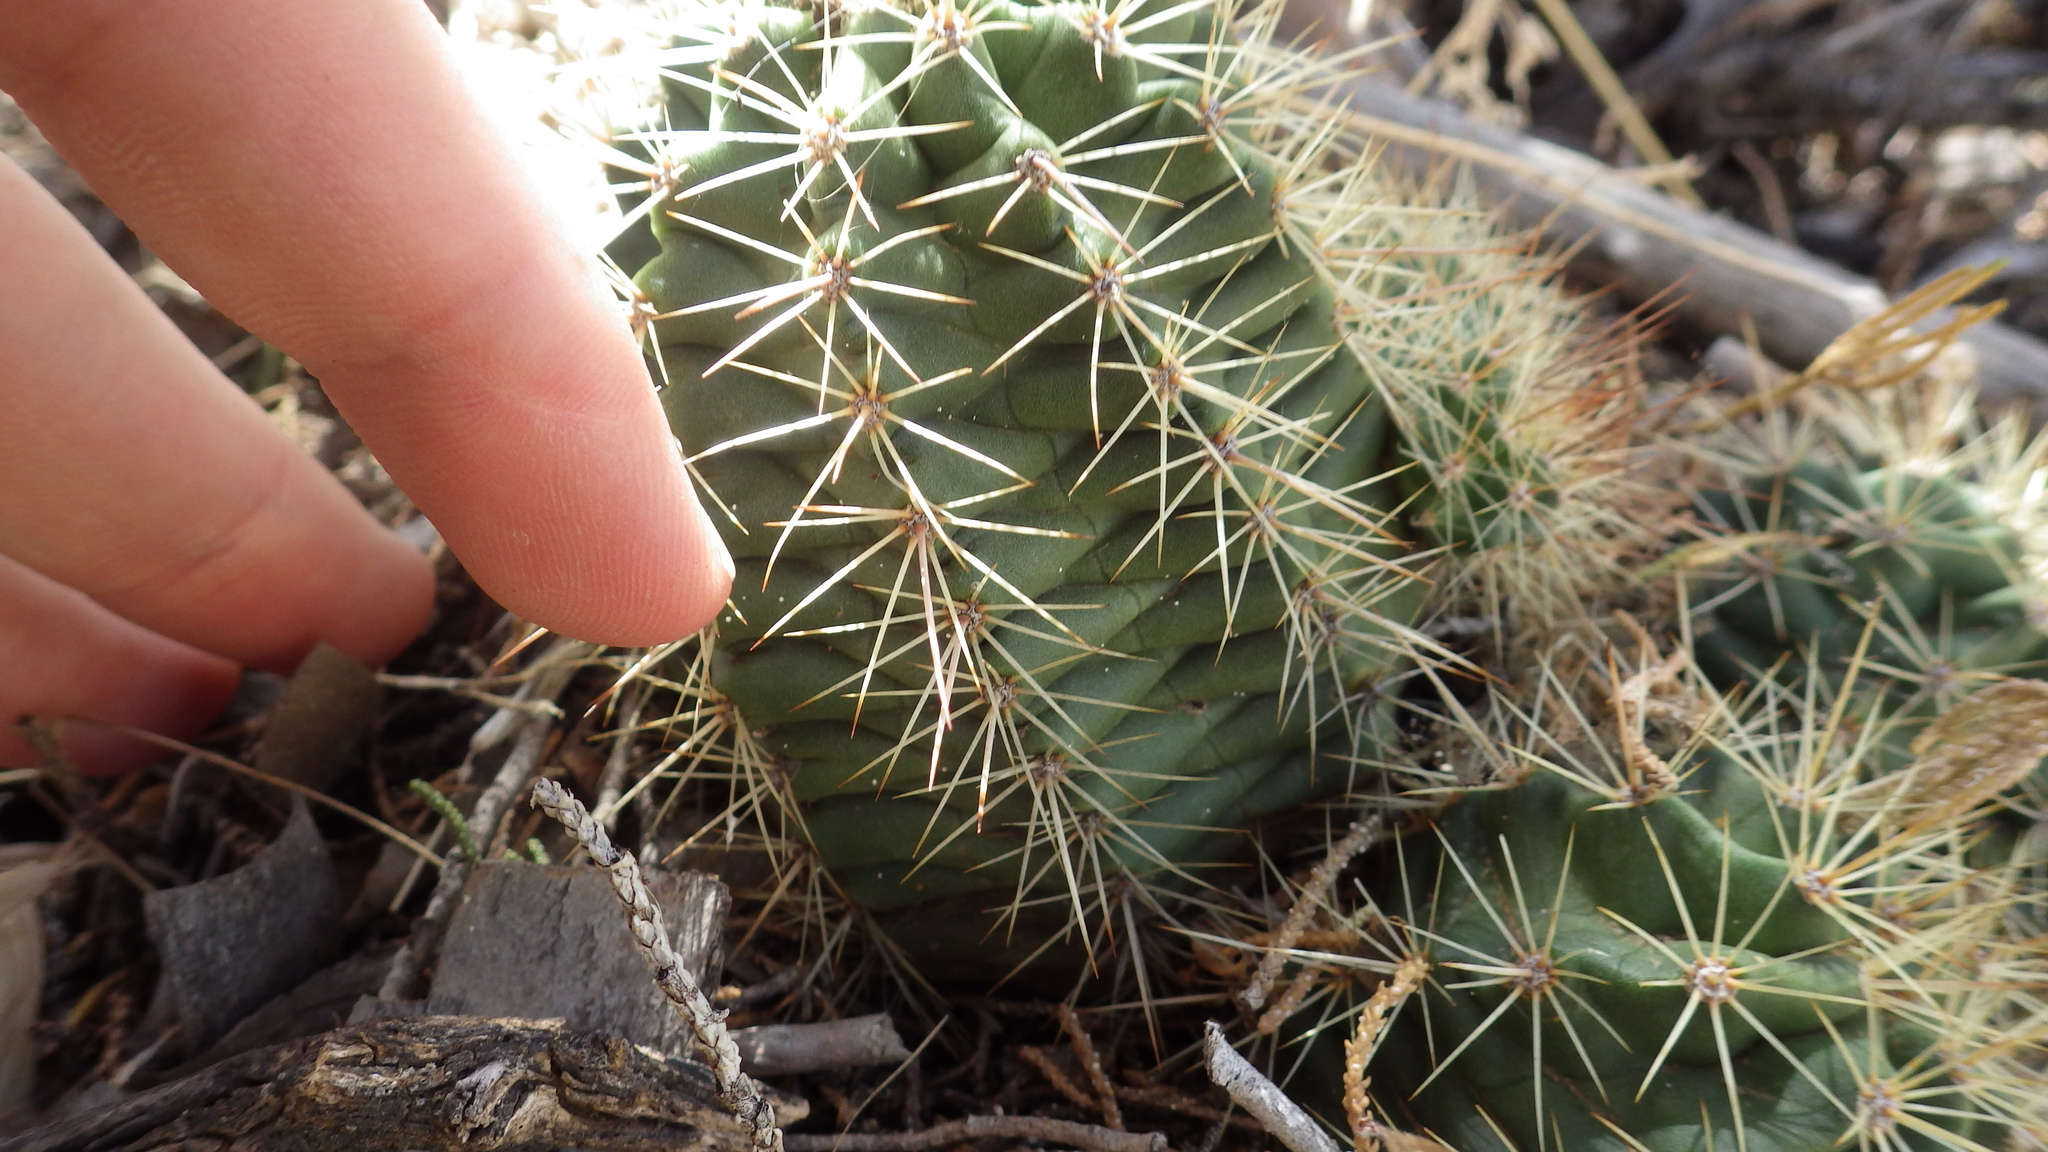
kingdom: Plantae
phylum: Tracheophyta
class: Magnoliopsida
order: Caryophyllales
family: Cactaceae
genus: Echinocereus
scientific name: Echinocereus coccineus
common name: Scarlet hedgehog cactus
